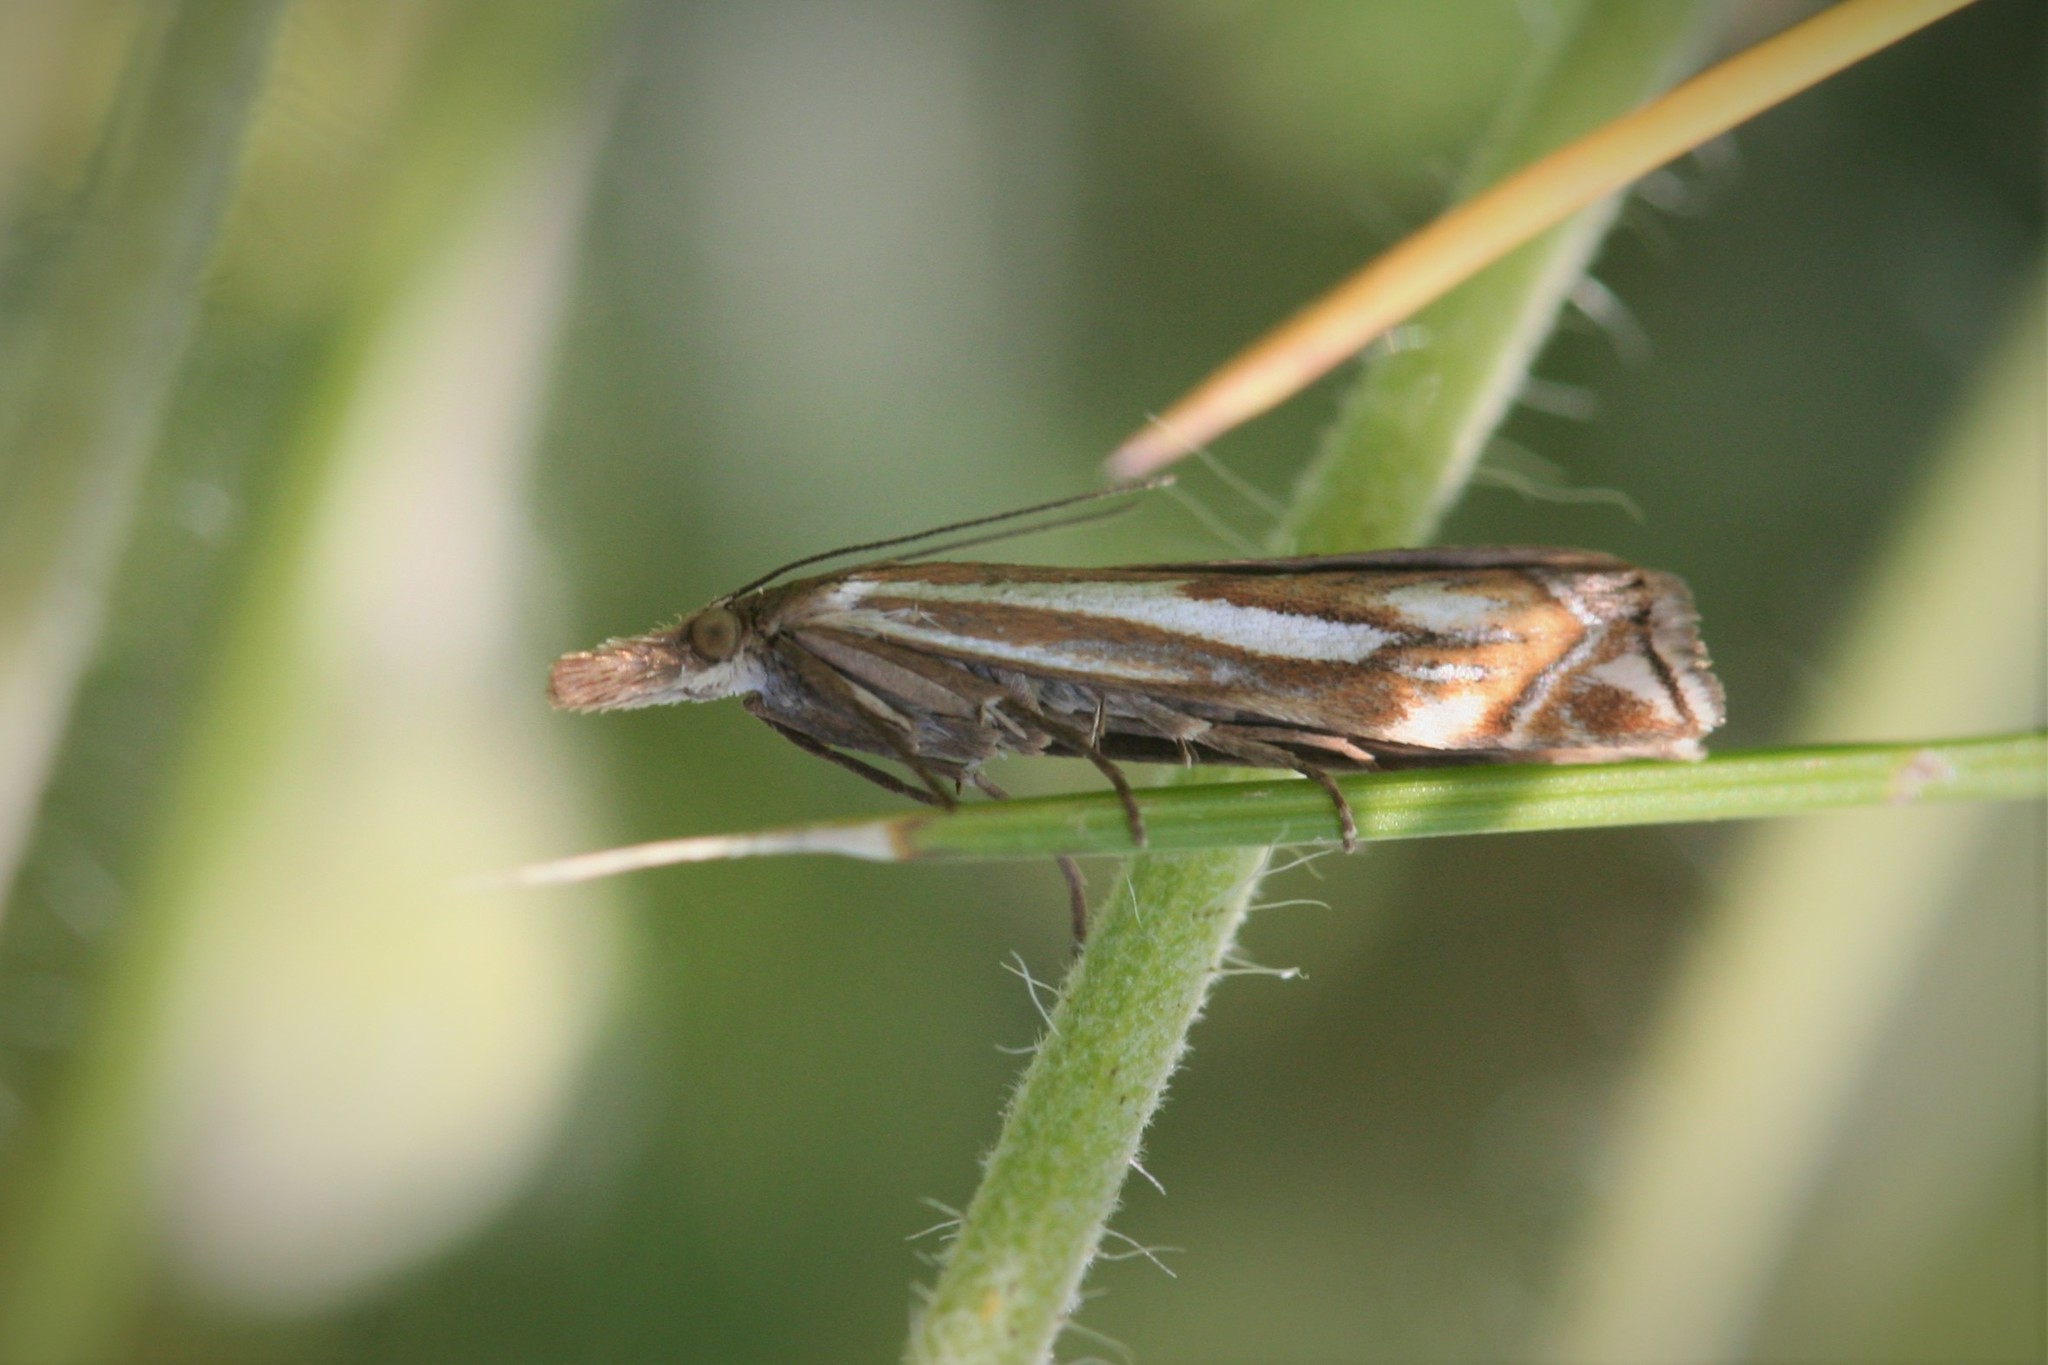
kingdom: Animalia
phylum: Arthropoda
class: Insecta
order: Lepidoptera
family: Crambidae
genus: Crambus
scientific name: Crambus pratella
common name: Scarce grass-veneer
